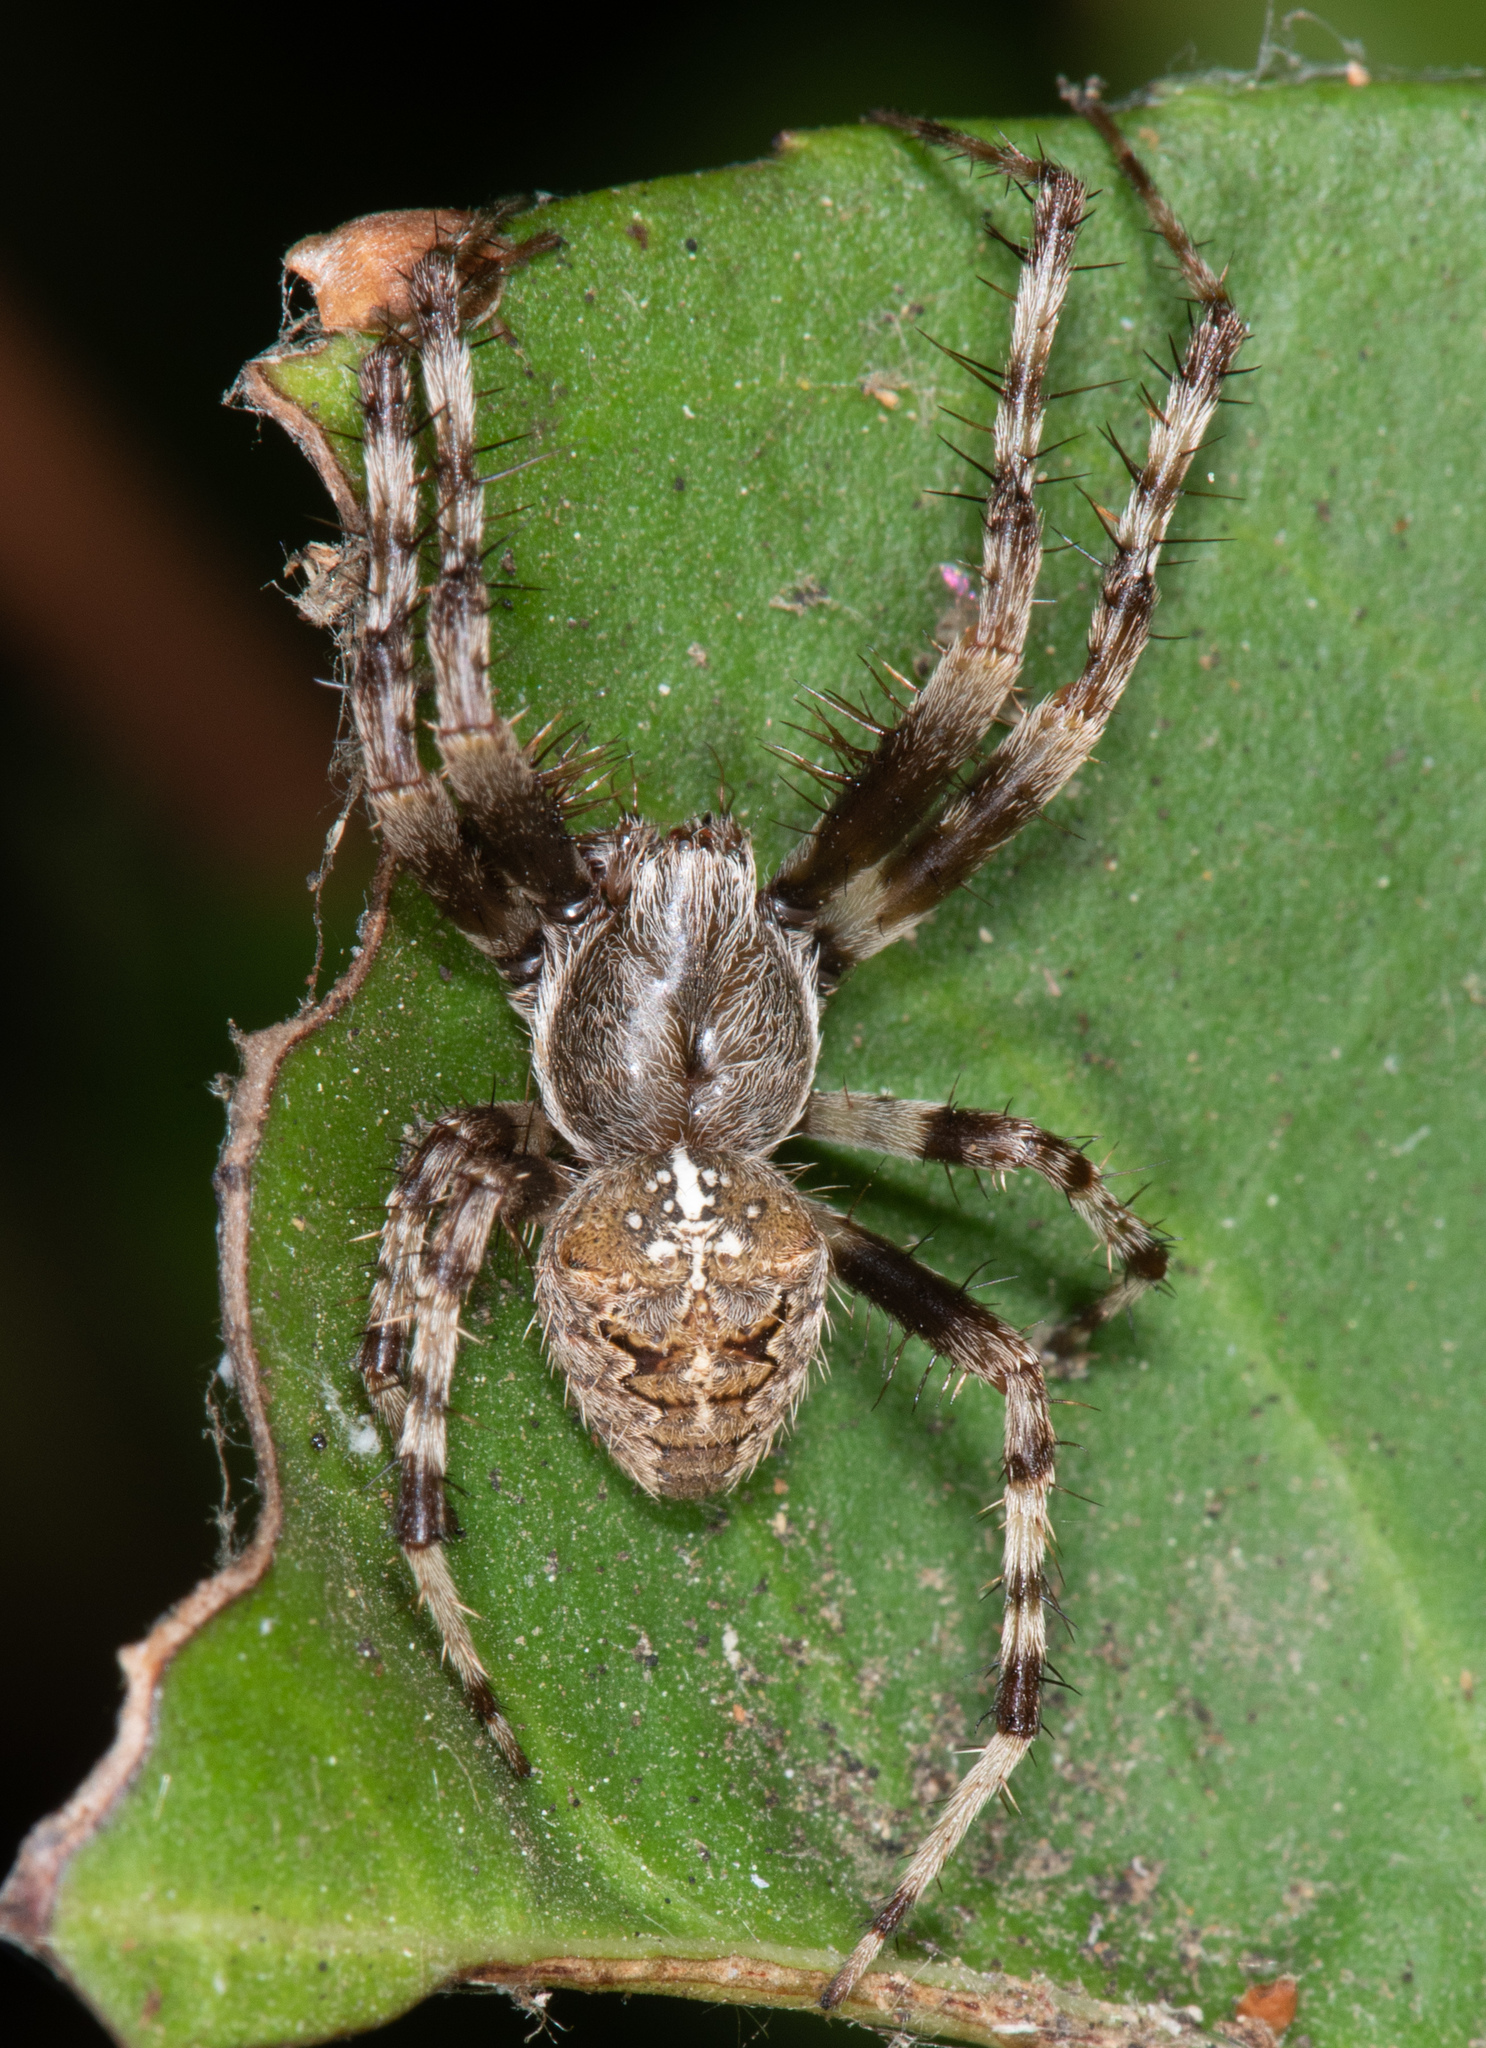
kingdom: Animalia
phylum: Arthropoda
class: Arachnida
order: Araneae
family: Araneidae
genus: Araneus
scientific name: Araneus diadematus
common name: Cross orbweaver
